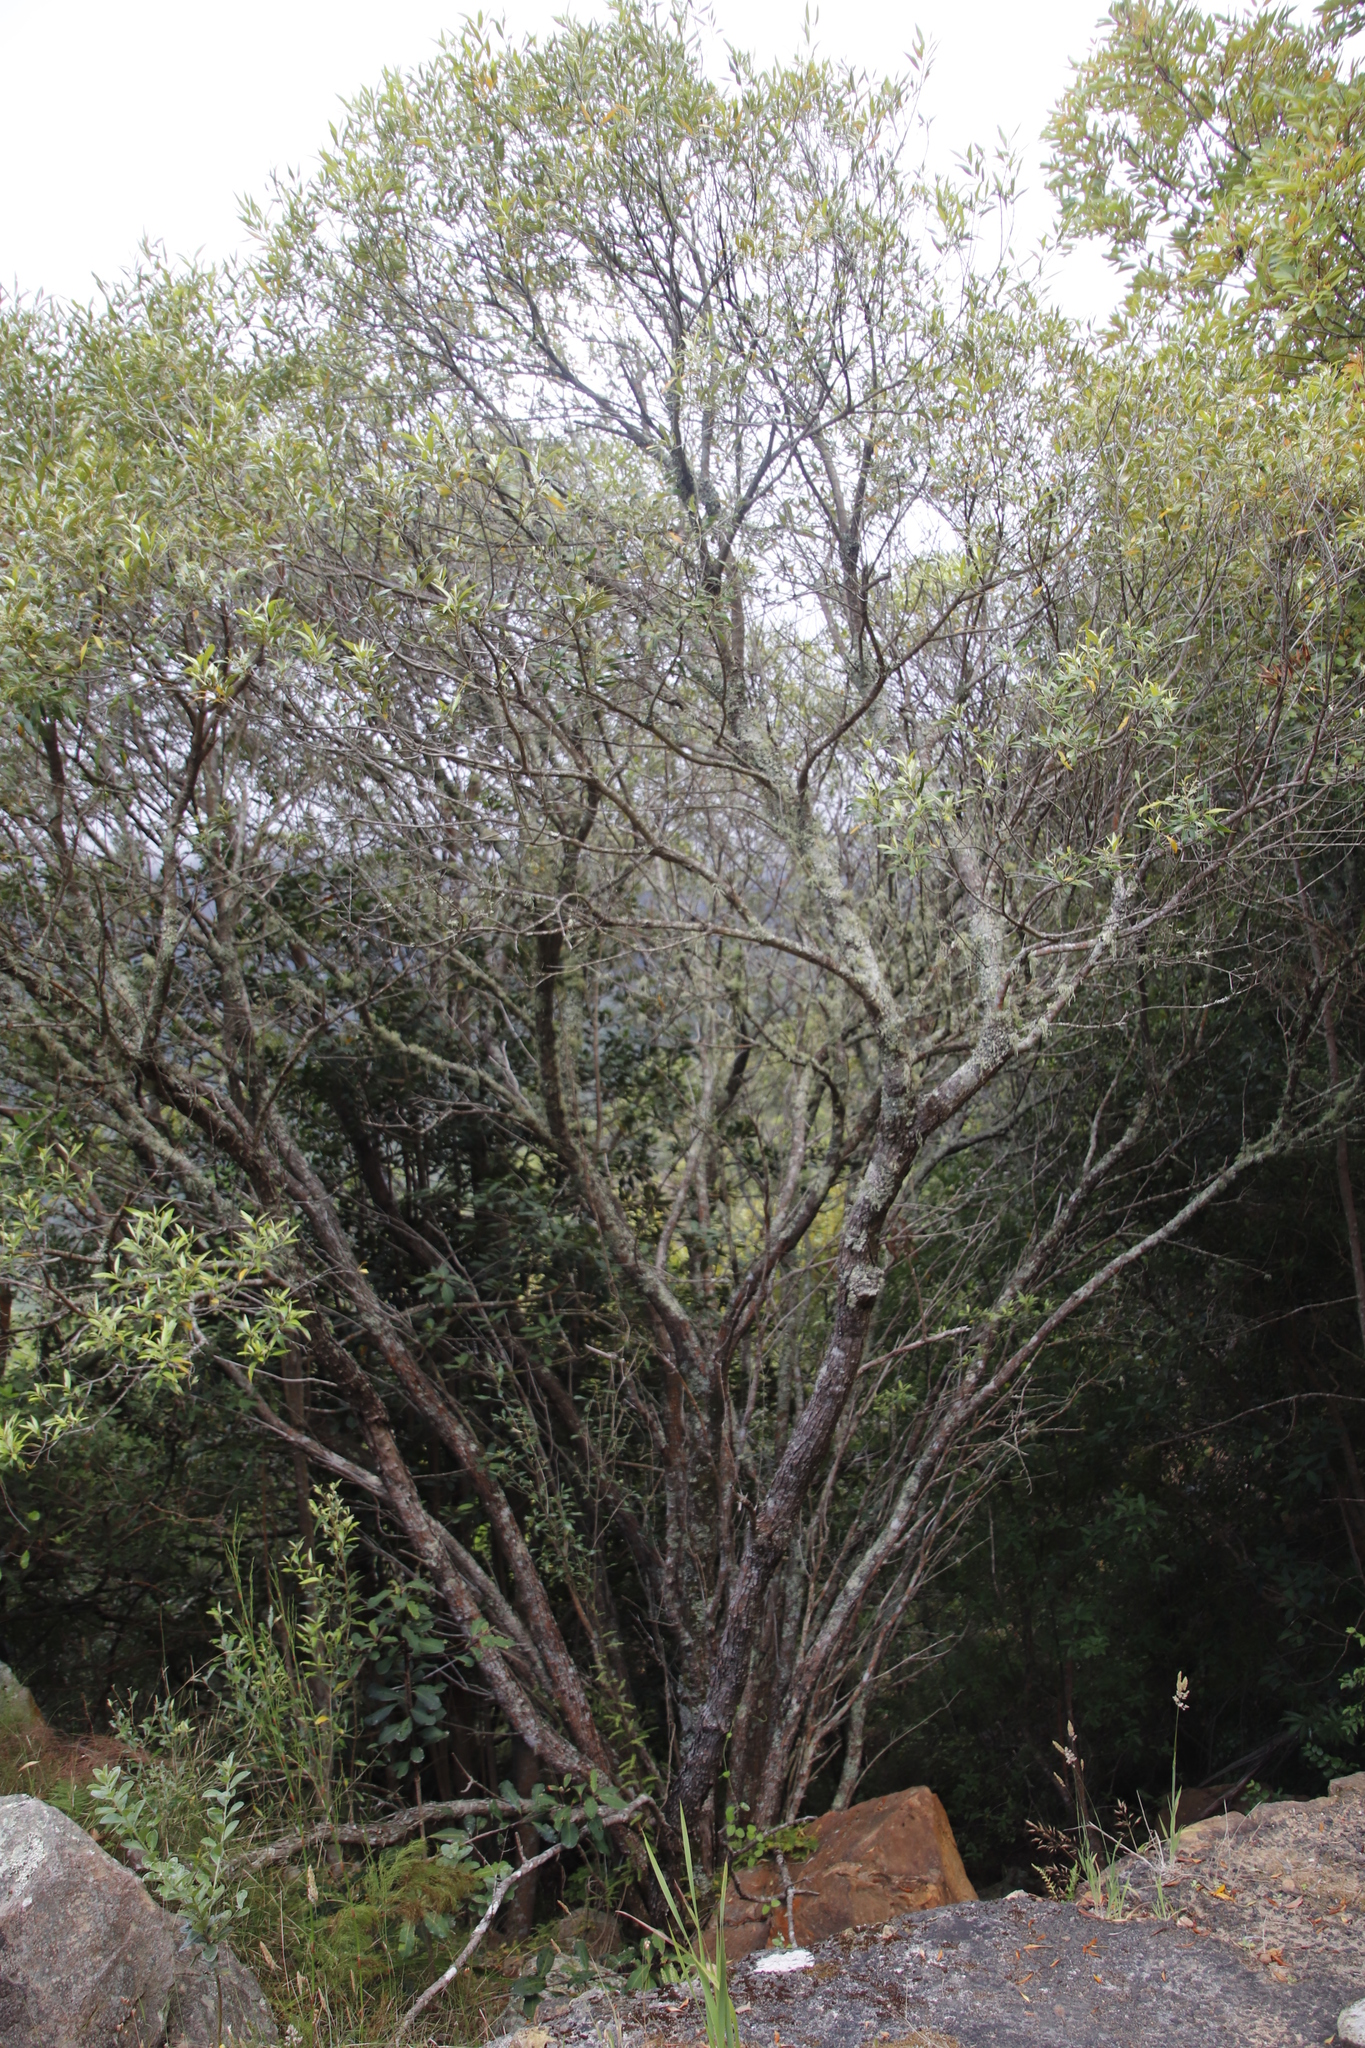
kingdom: Plantae
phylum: Tracheophyta
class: Magnoliopsida
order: Lamiales
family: Oleaceae
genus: Olea
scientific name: Olea europaea
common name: Olive
